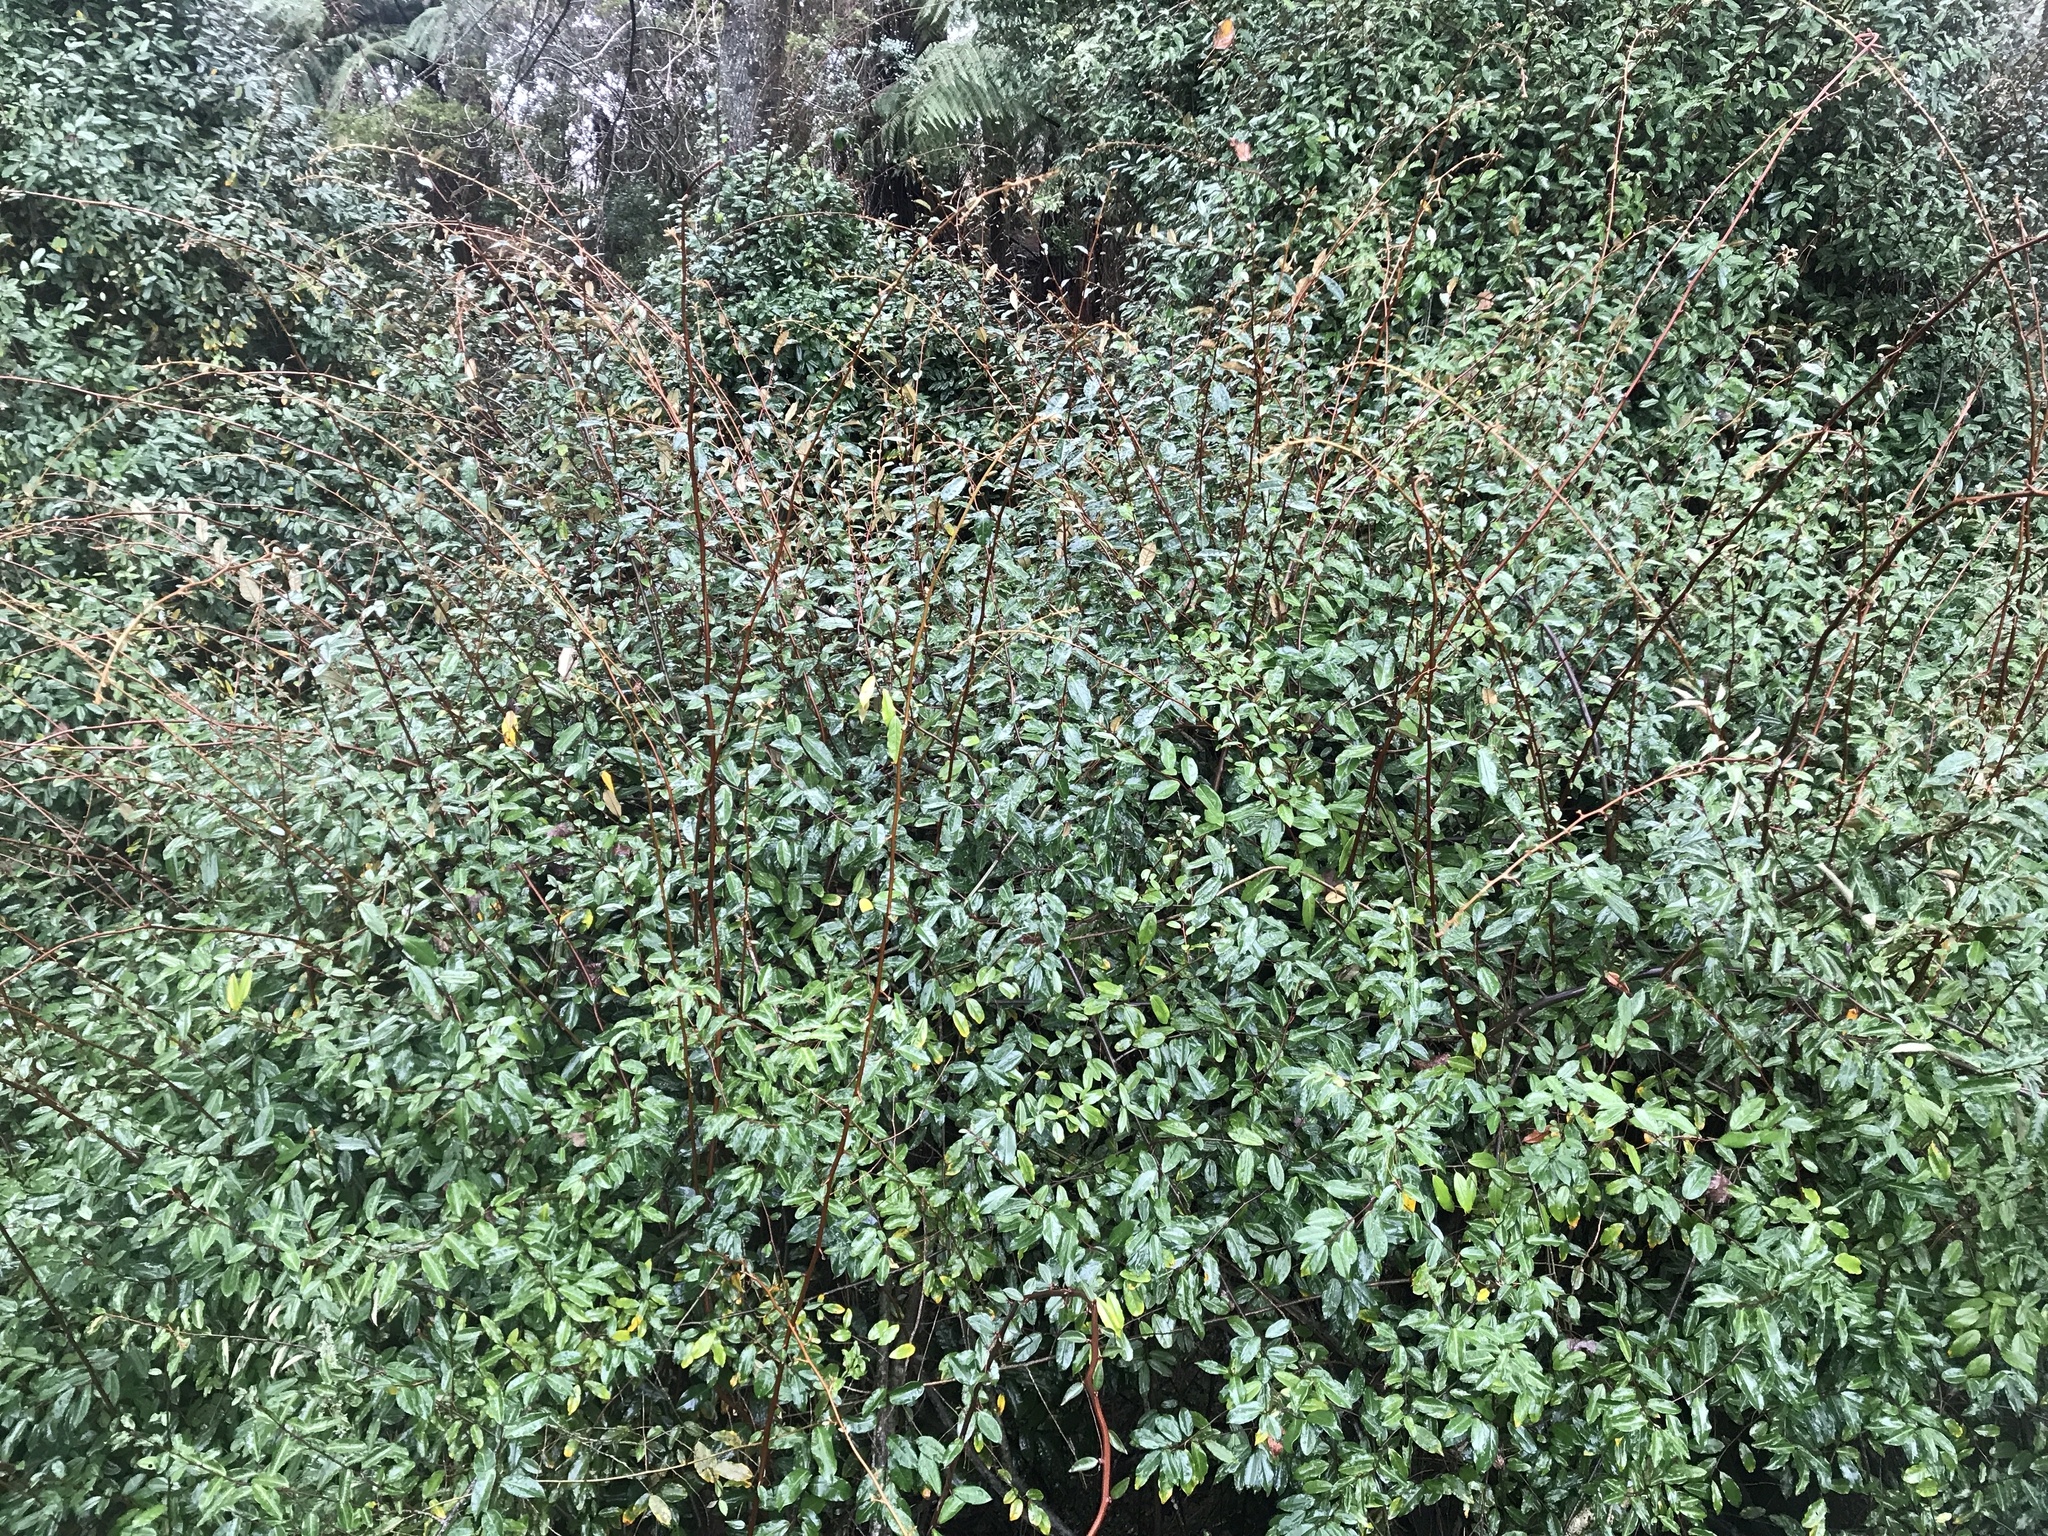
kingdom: Plantae
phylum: Tracheophyta
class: Magnoliopsida
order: Rosales
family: Elaeagnaceae
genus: Elaeagnus
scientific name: Elaeagnus reflexa
